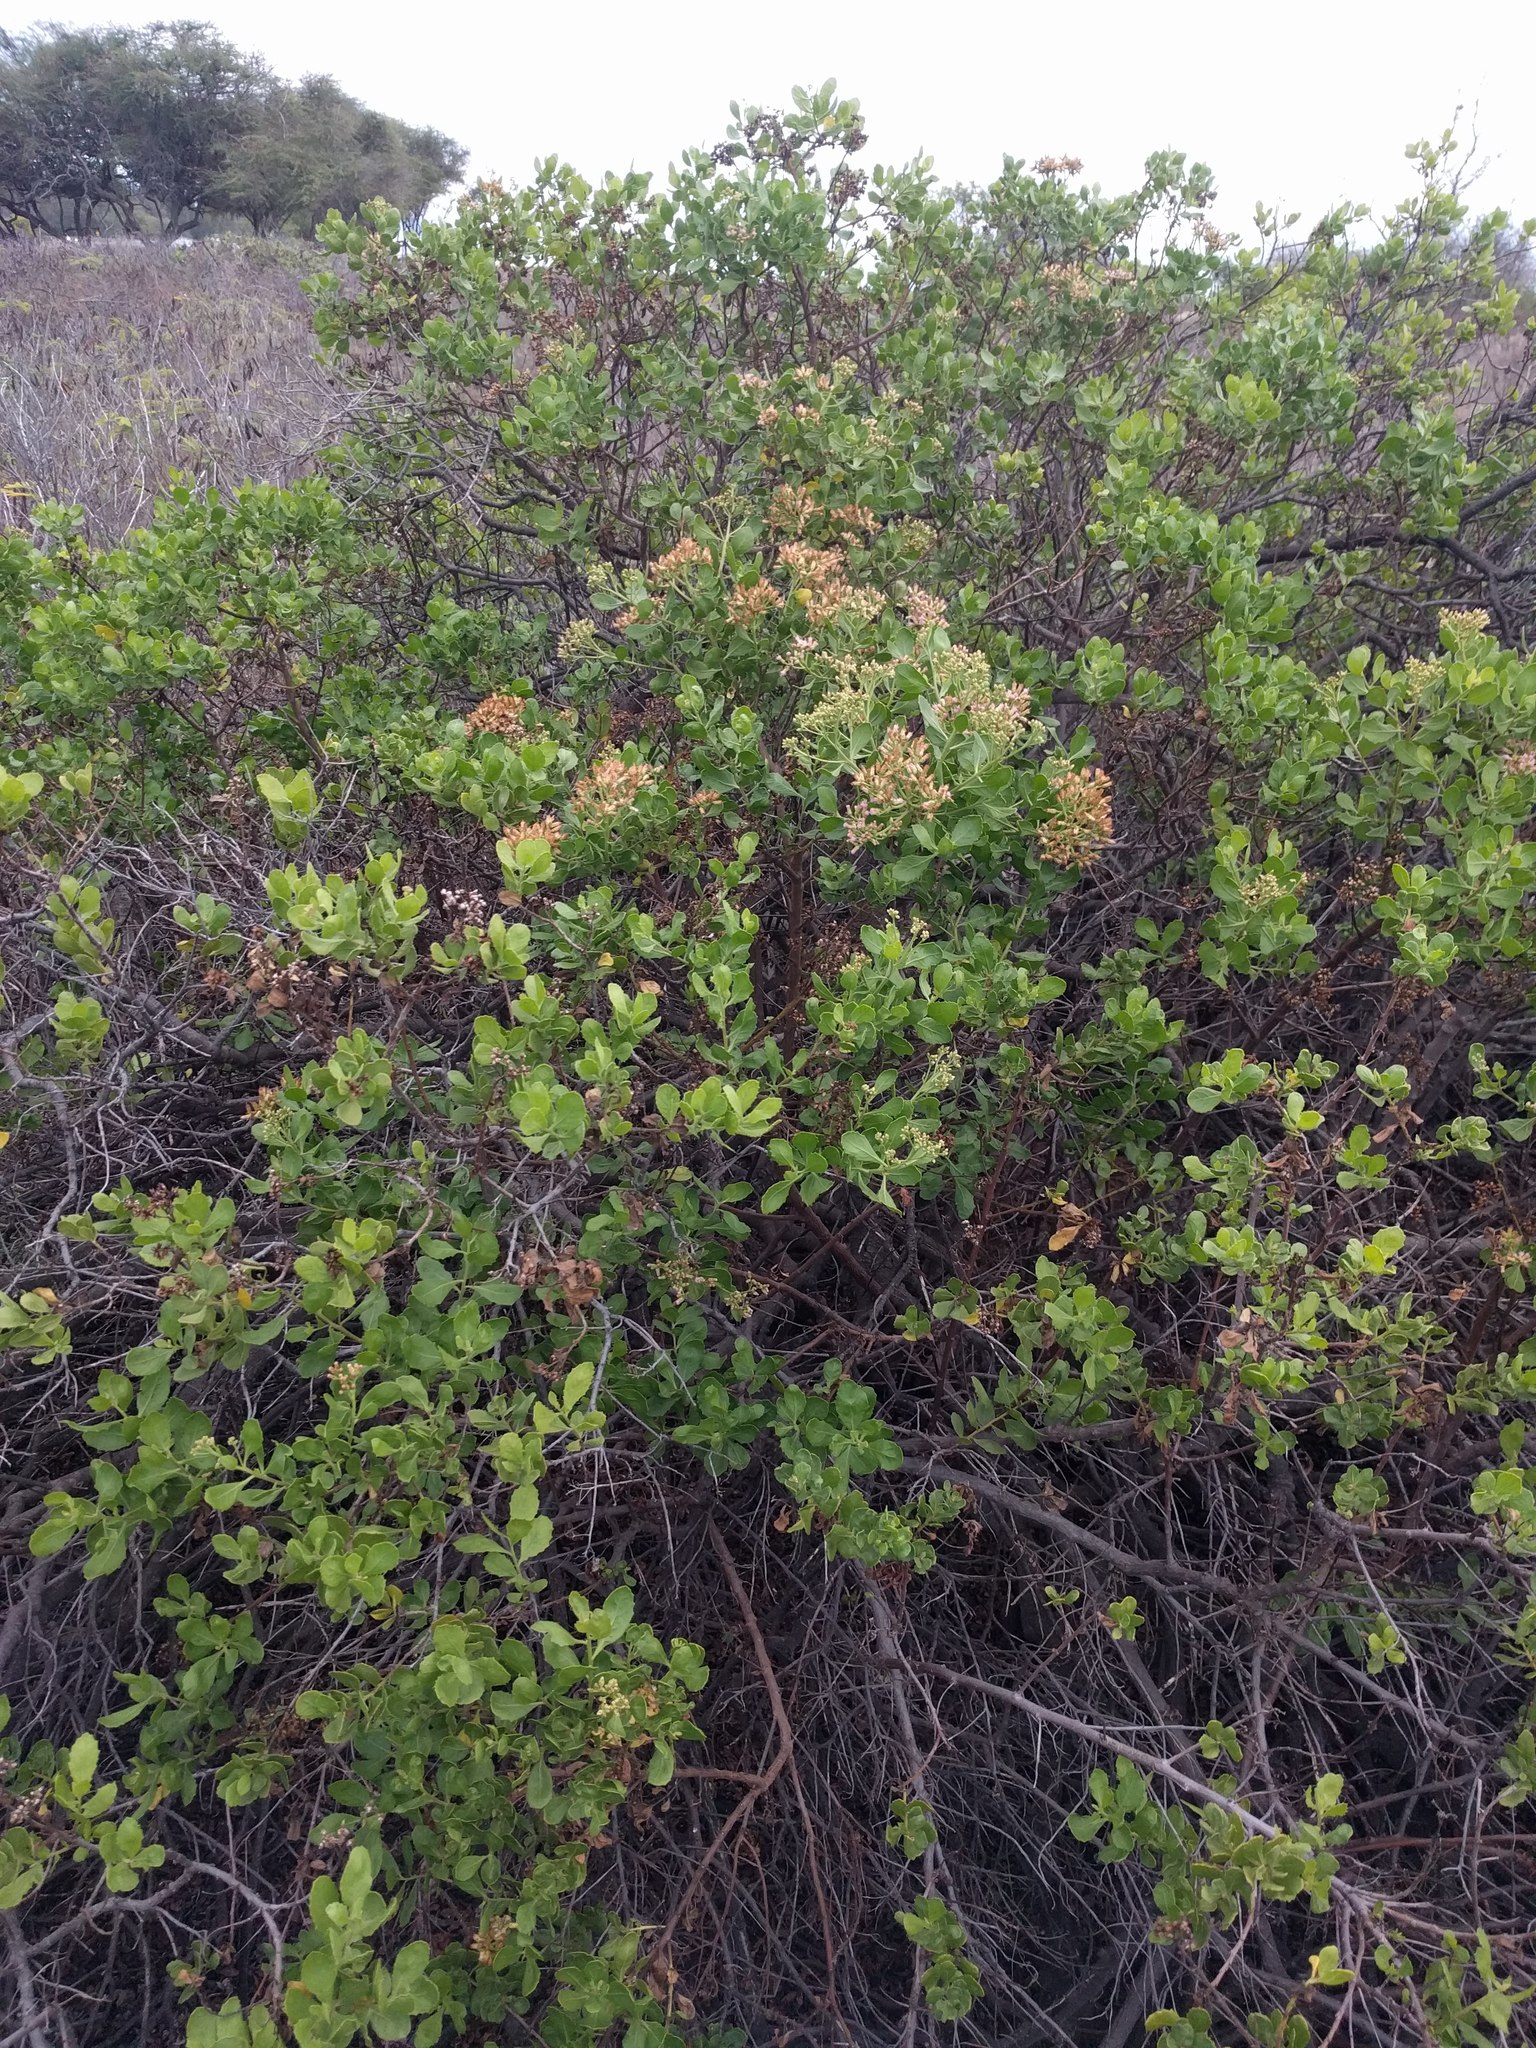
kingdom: Plantae
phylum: Tracheophyta
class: Magnoliopsida
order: Asterales
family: Asteraceae
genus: Pluchea
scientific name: Pluchea indica
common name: Indian fleabane
